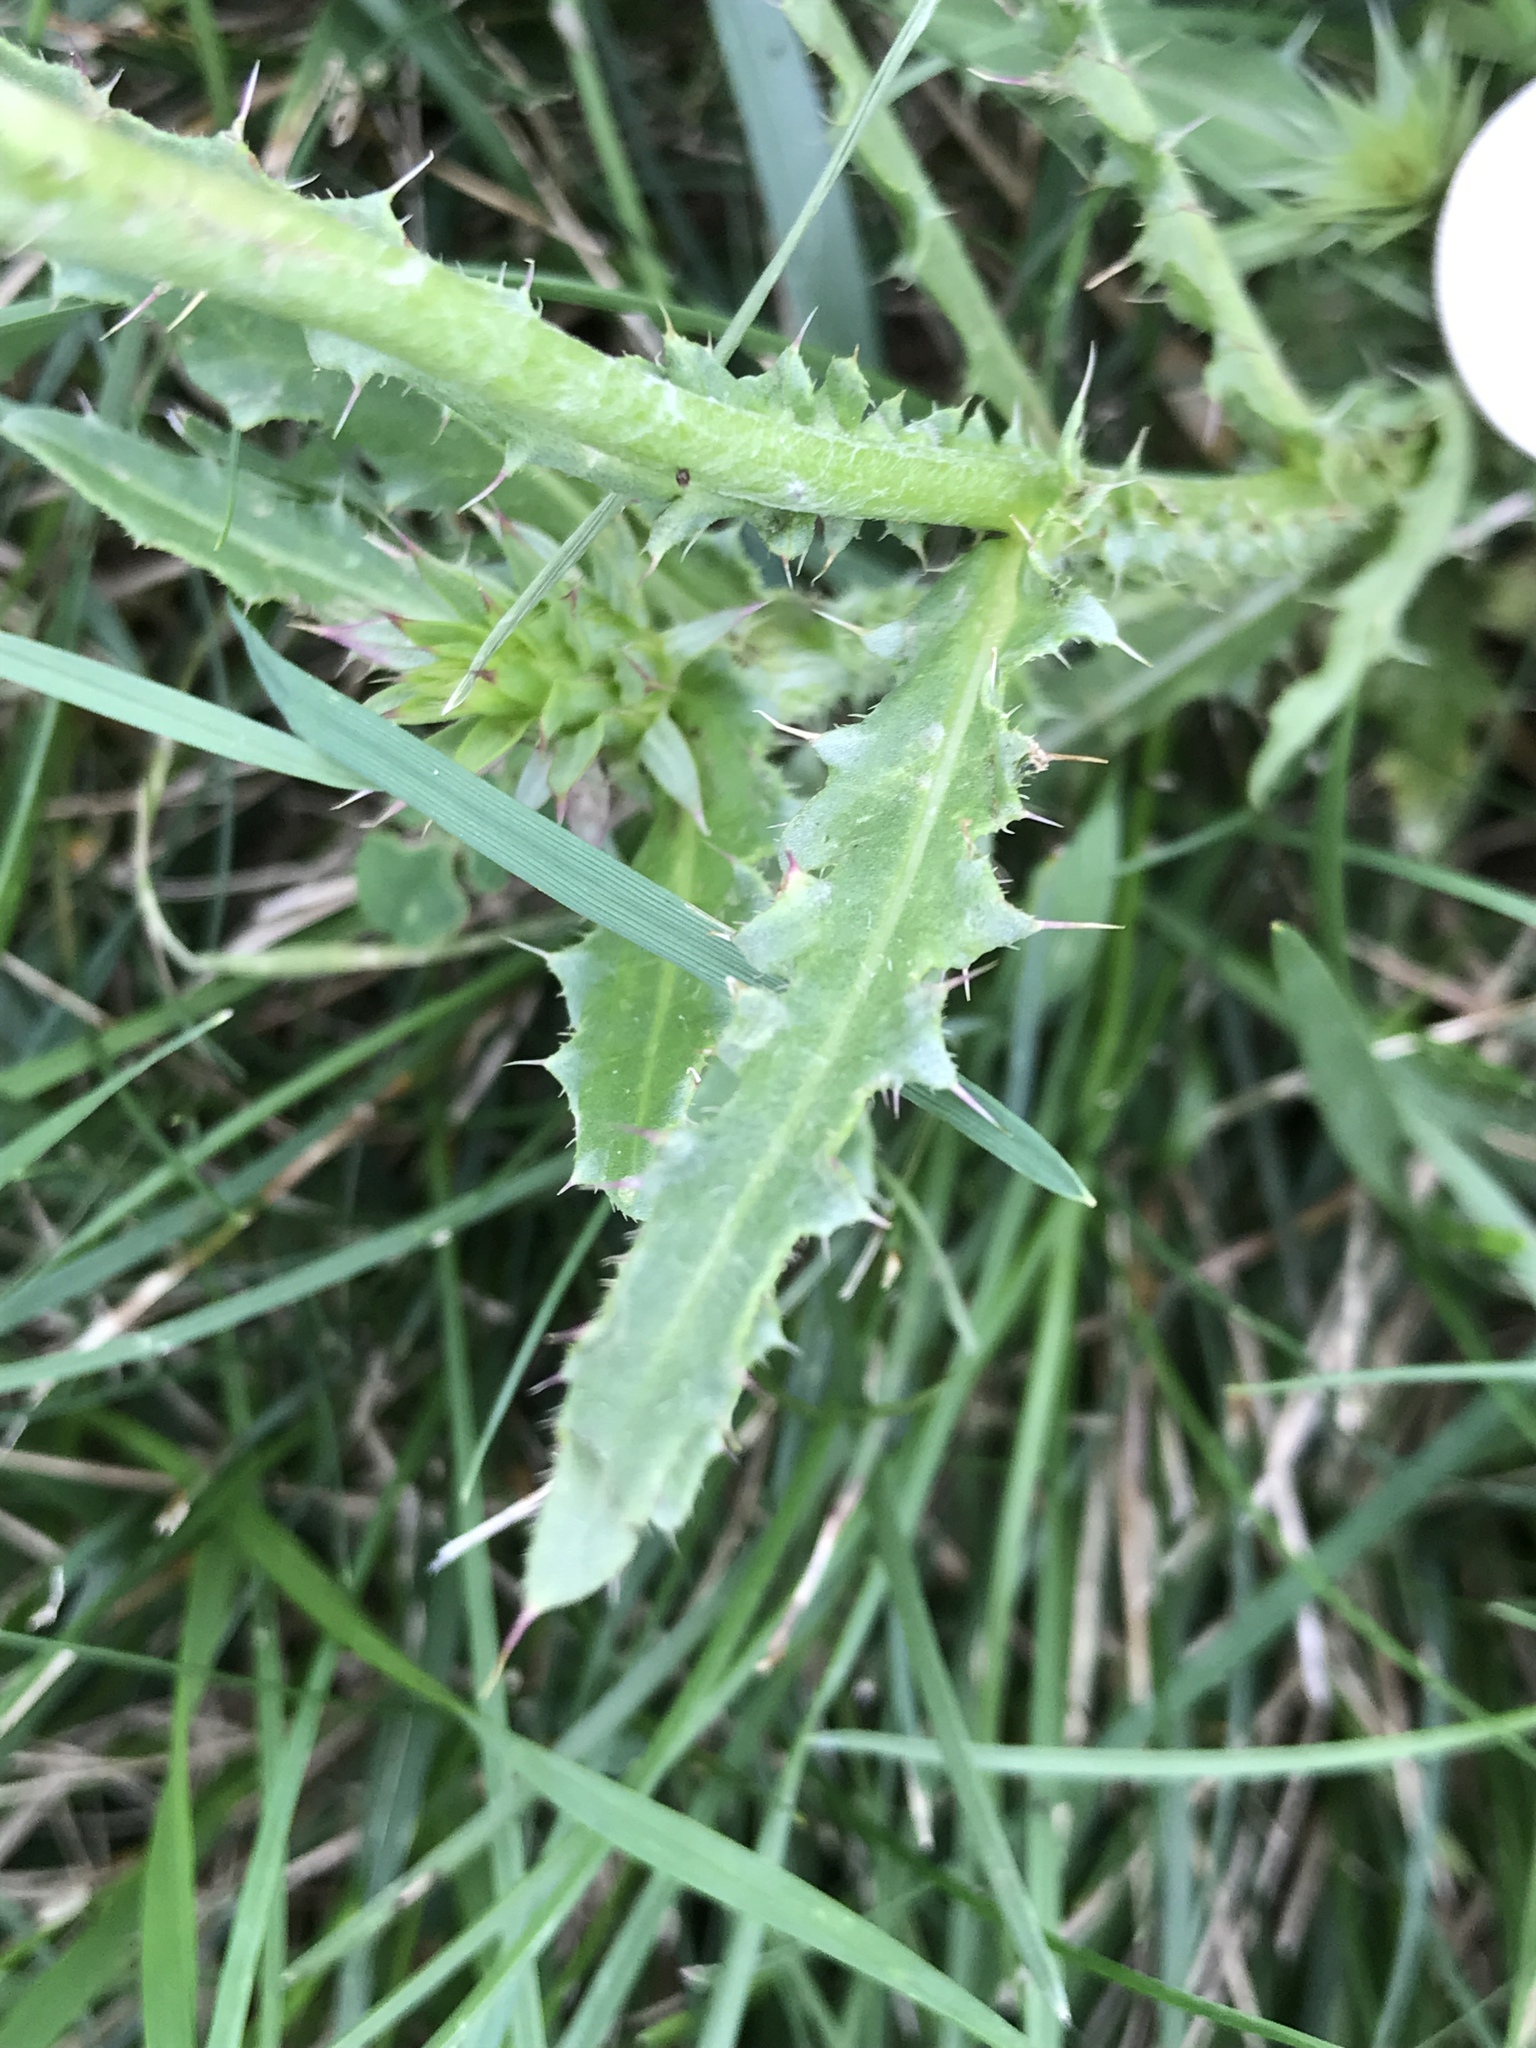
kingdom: Plantae
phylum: Tracheophyta
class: Magnoliopsida
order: Asterales
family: Asteraceae
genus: Carduus
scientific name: Carduus nutans
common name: Musk thistle
